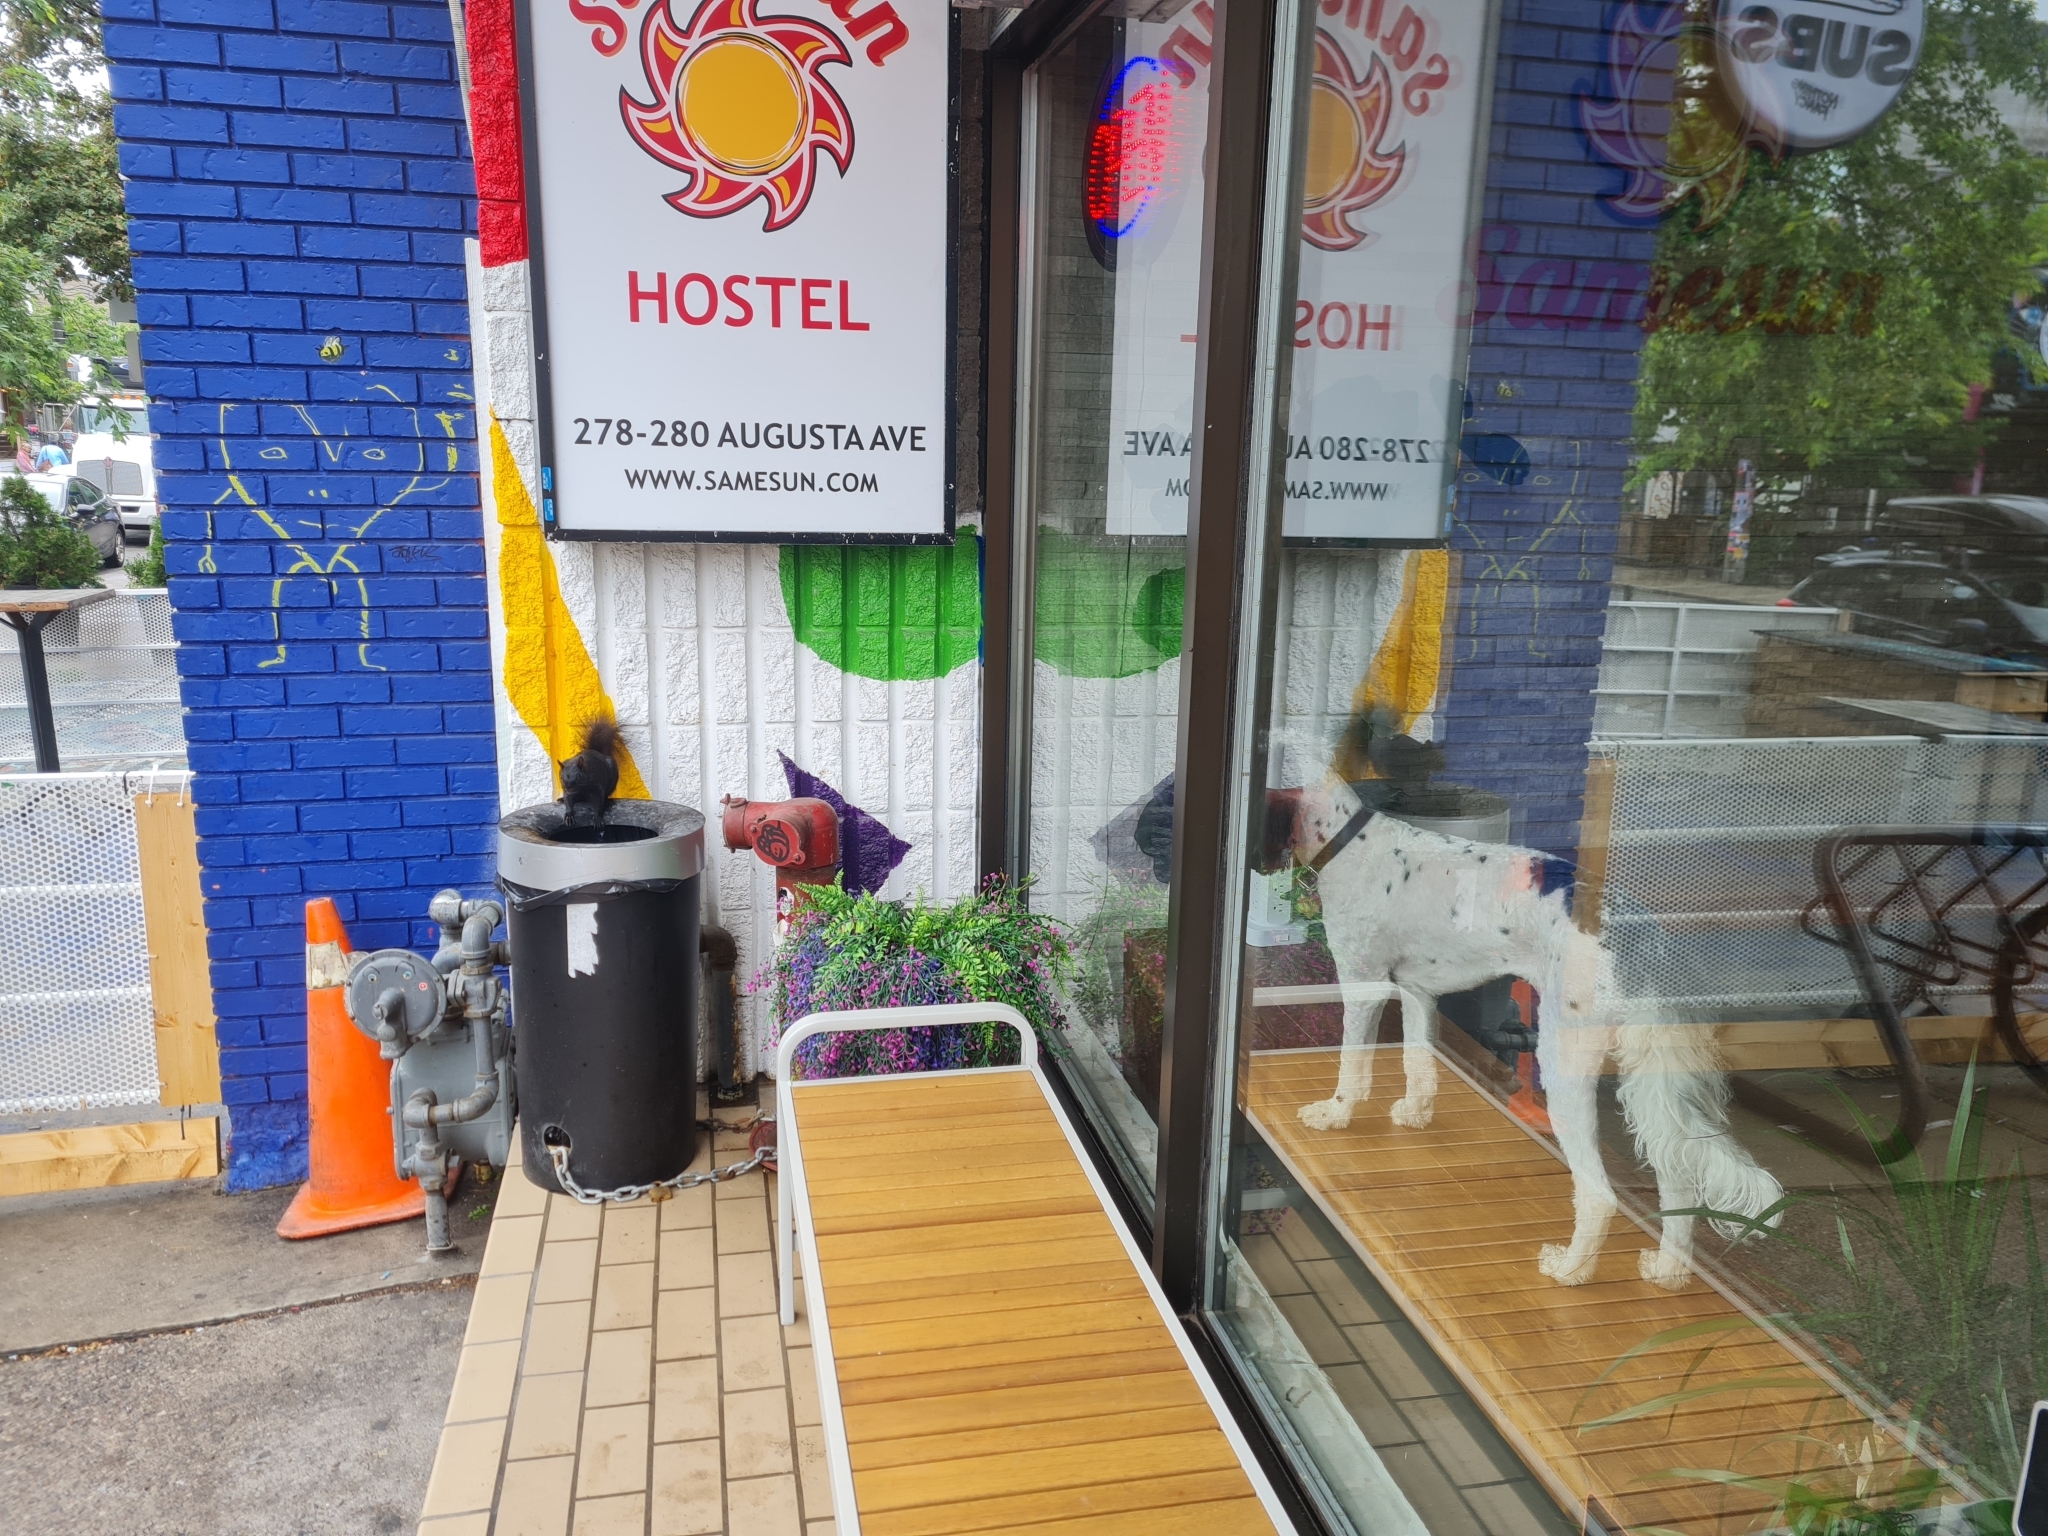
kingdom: Animalia
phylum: Chordata
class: Mammalia
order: Rodentia
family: Sciuridae
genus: Sciurus
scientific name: Sciurus carolinensis
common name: Eastern gray squirrel
